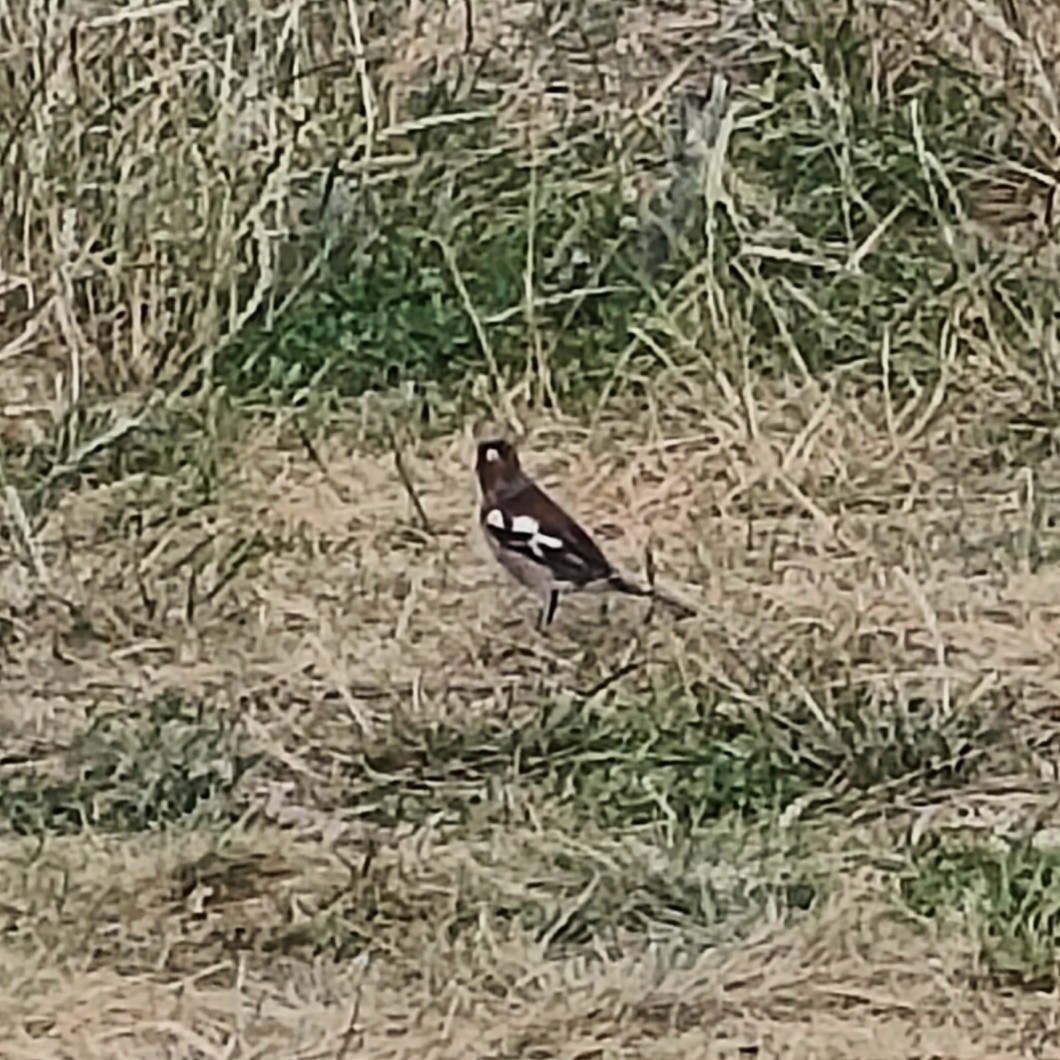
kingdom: Animalia
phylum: Chordata
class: Aves
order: Passeriformes
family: Fringillidae
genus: Fringilla
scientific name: Fringilla coelebs
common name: Common chaffinch
